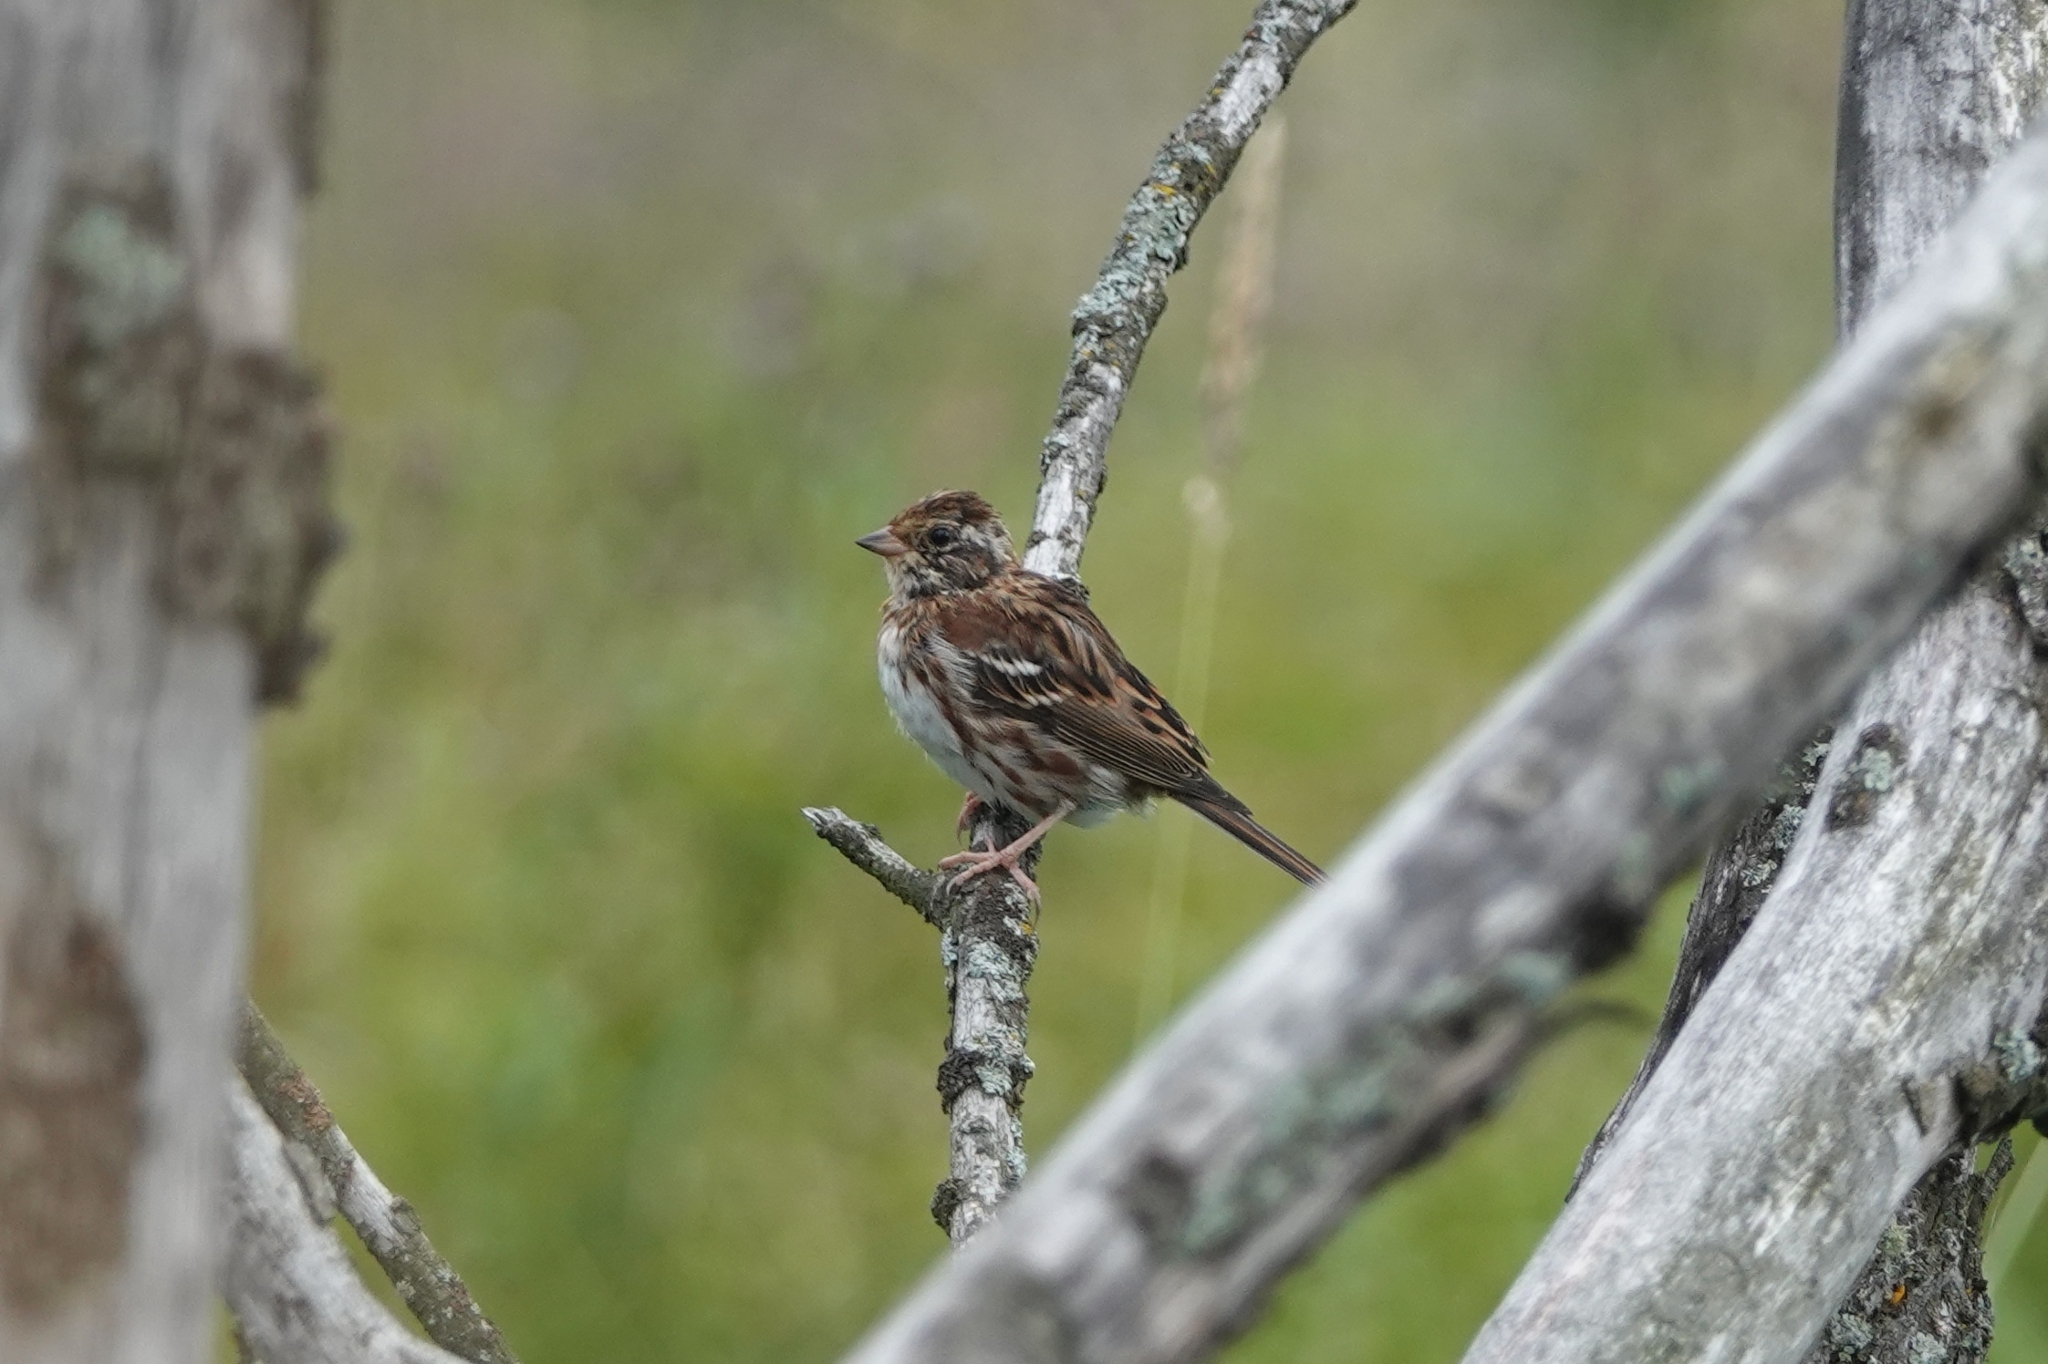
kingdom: Animalia
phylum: Chordata
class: Aves
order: Passeriformes
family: Emberizidae
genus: Emberiza
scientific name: Emberiza rustica
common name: Rustic bunting
